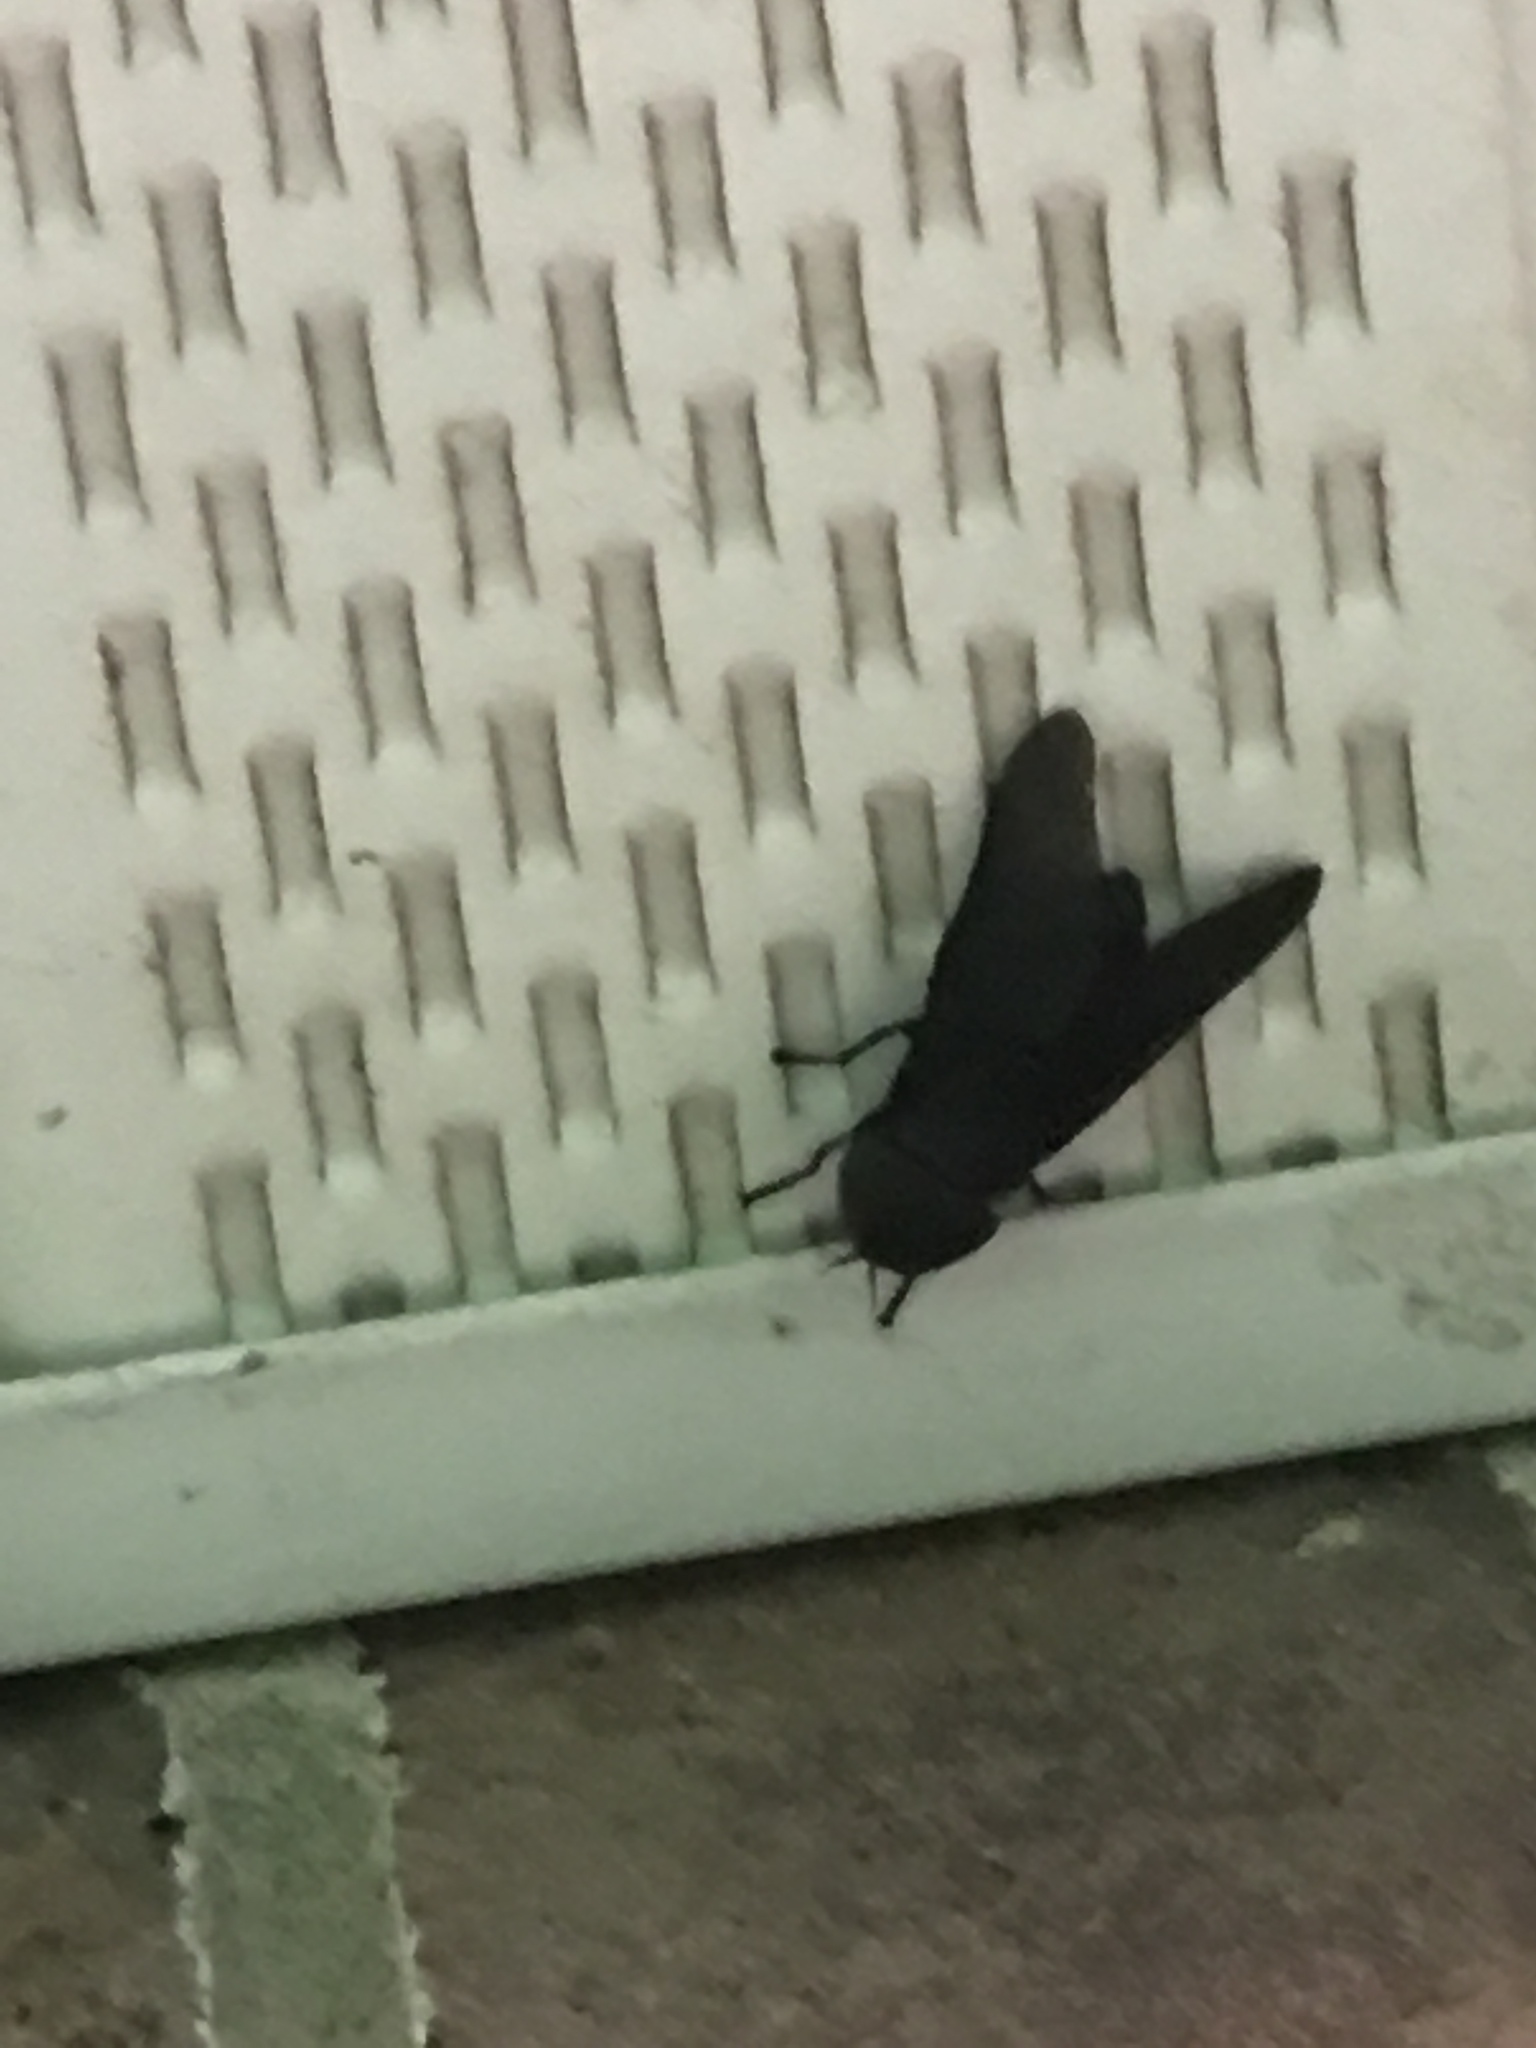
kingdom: Animalia
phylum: Arthropoda
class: Insecta
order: Diptera
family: Tabanidae
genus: Tabanus
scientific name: Tabanus atratus
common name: Black horse fly
